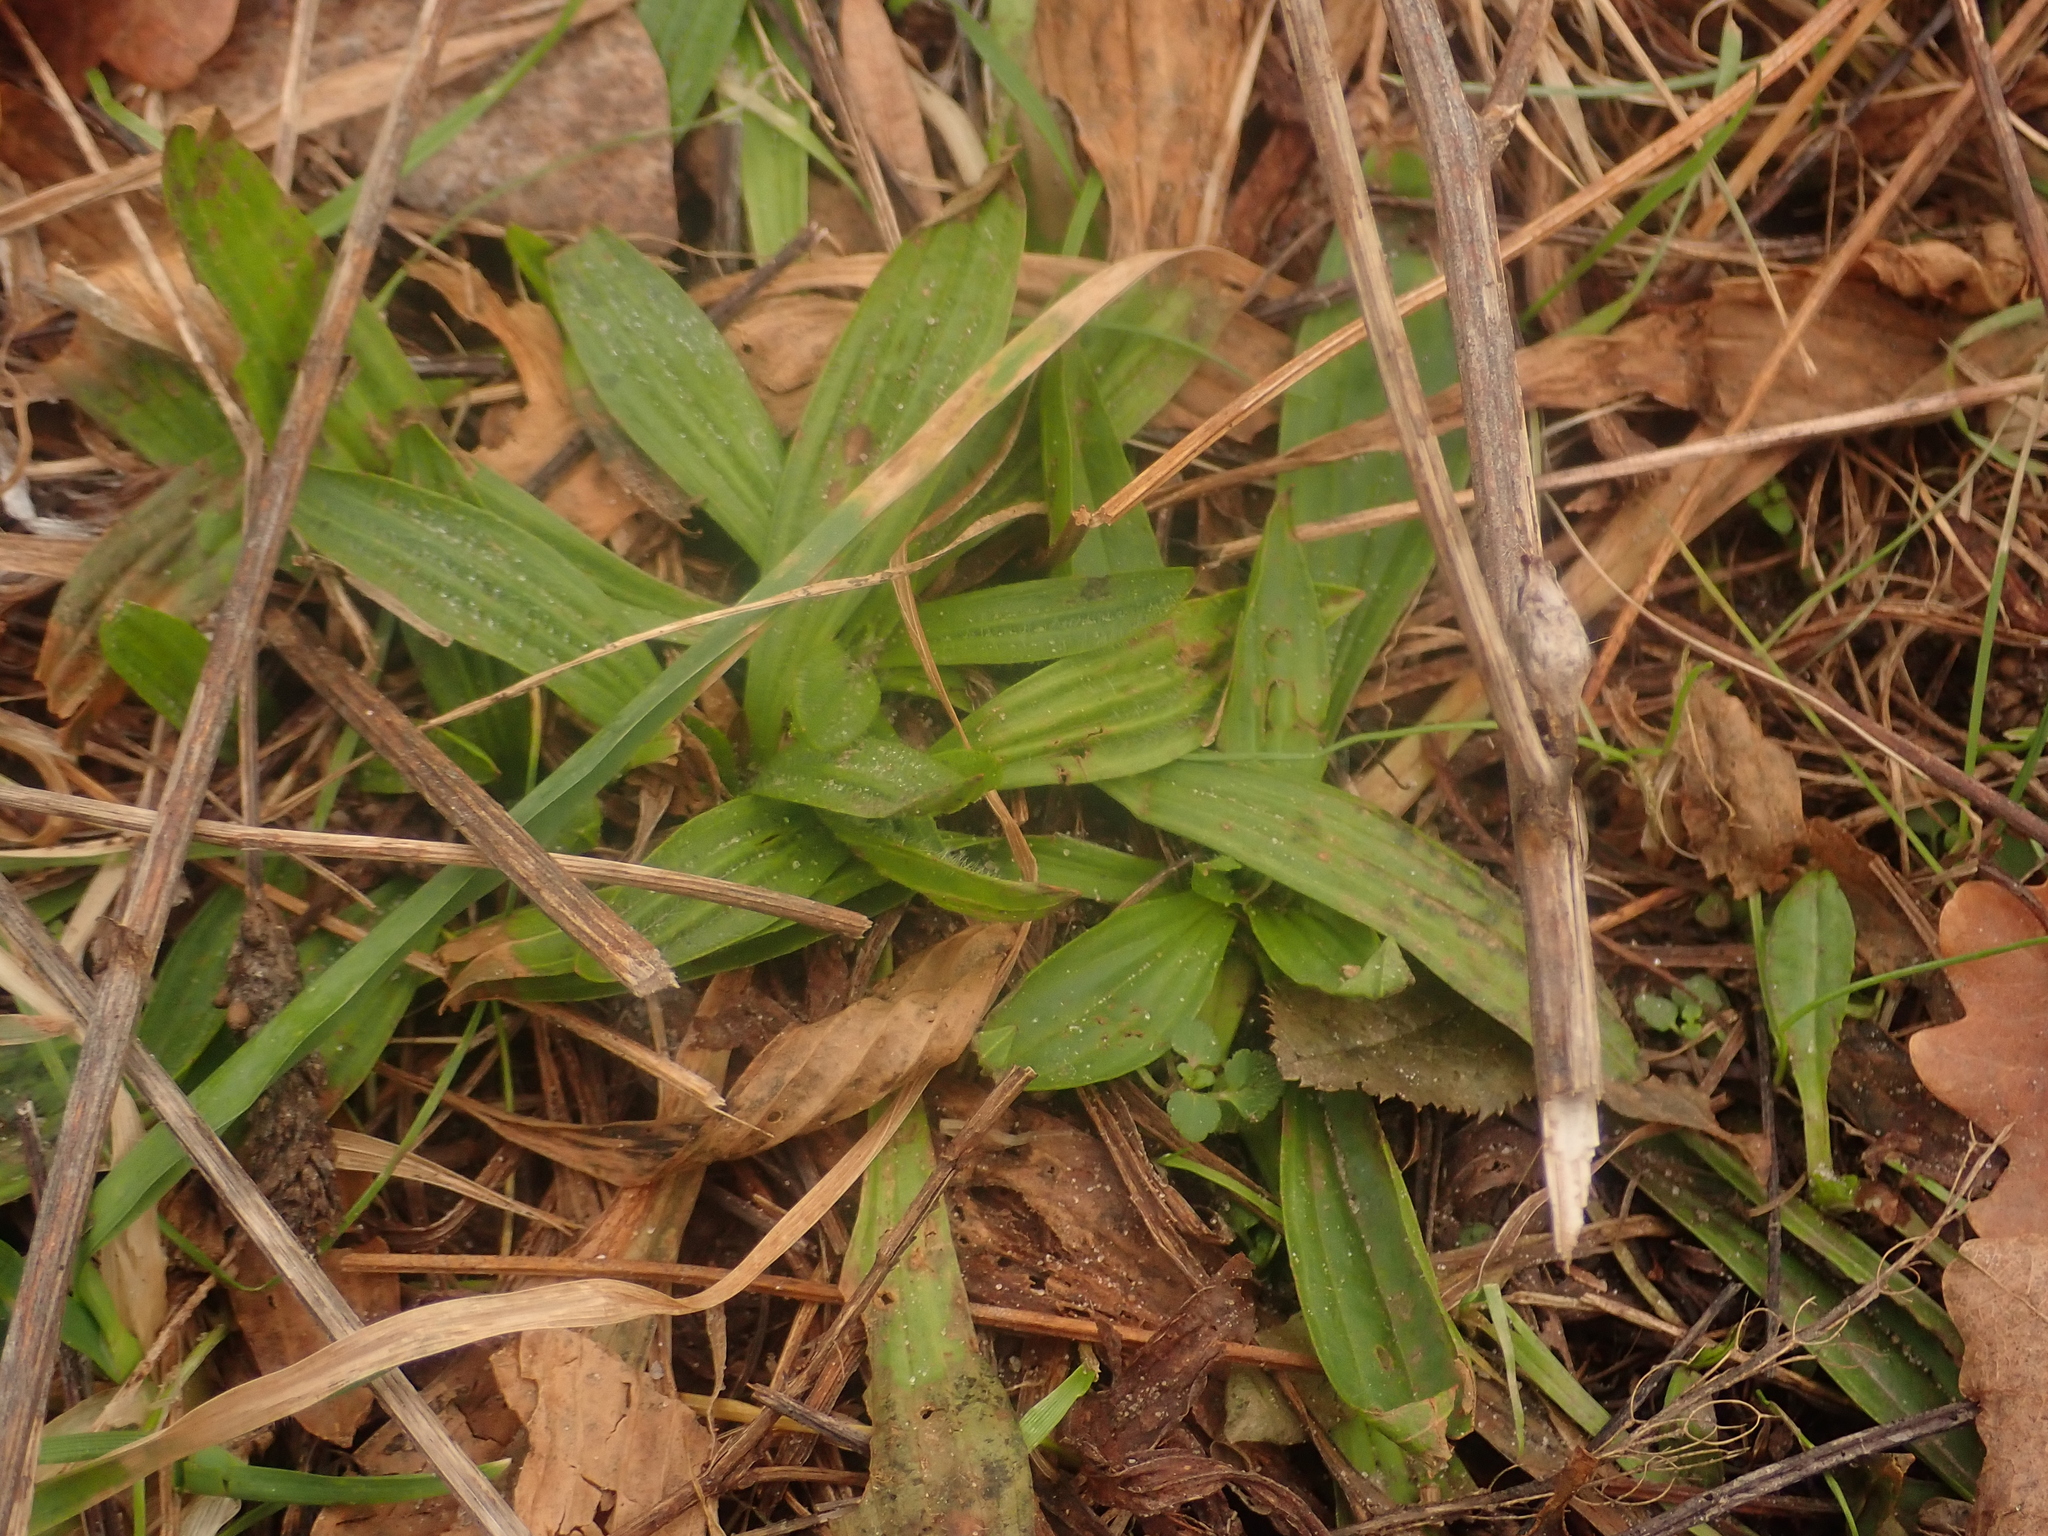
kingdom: Plantae
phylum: Tracheophyta
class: Magnoliopsida
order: Lamiales
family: Plantaginaceae
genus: Plantago
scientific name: Plantago lanceolata
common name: Ribwort plantain
